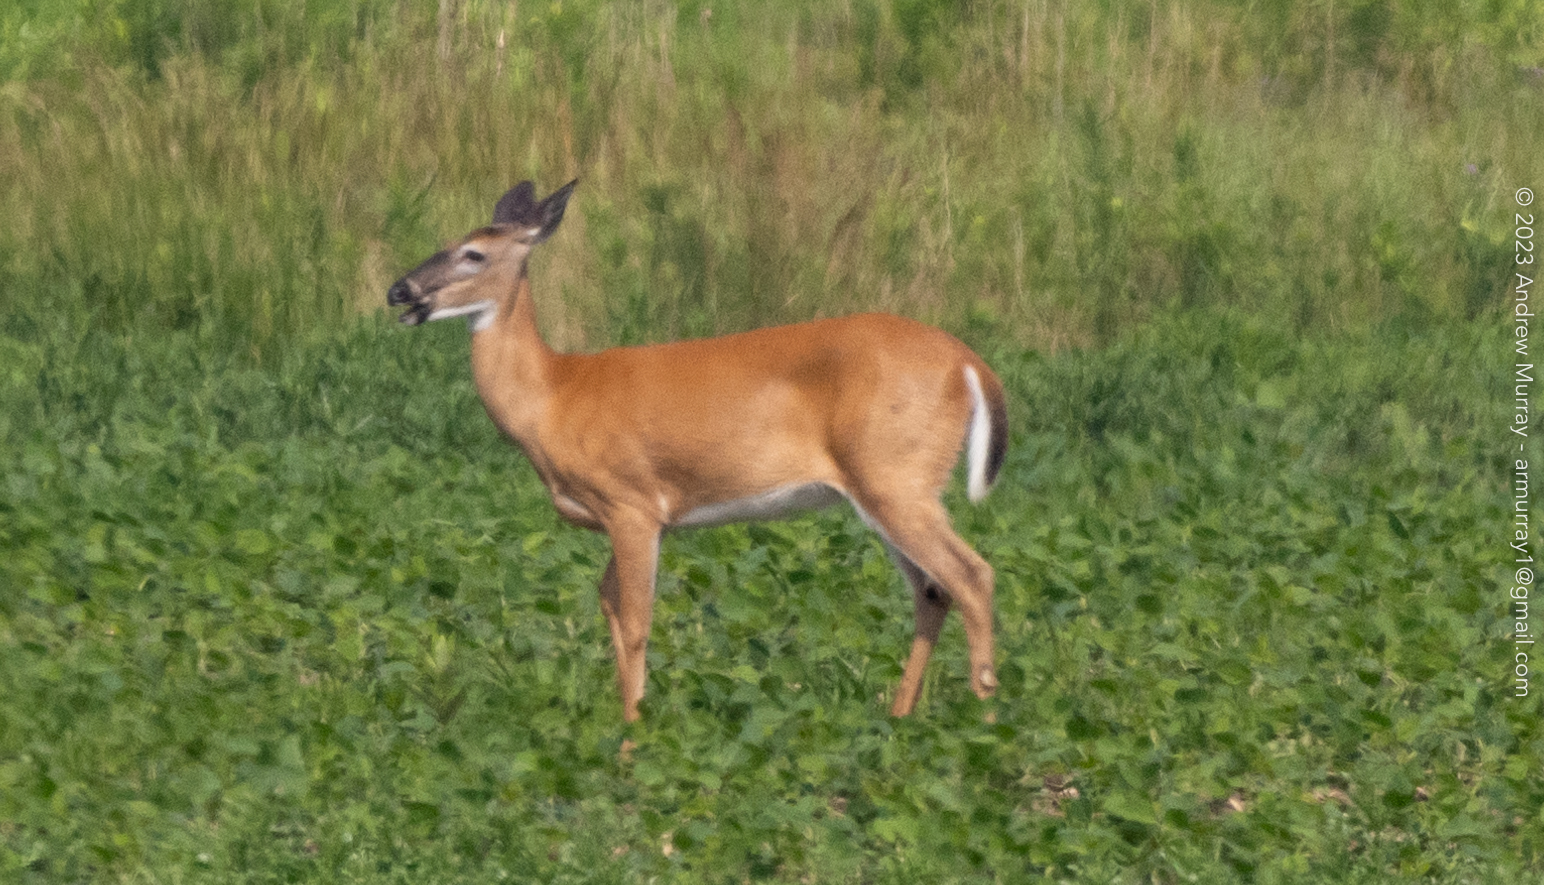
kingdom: Animalia
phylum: Chordata
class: Mammalia
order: Artiodactyla
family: Cervidae
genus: Odocoileus
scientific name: Odocoileus virginianus
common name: White-tailed deer
